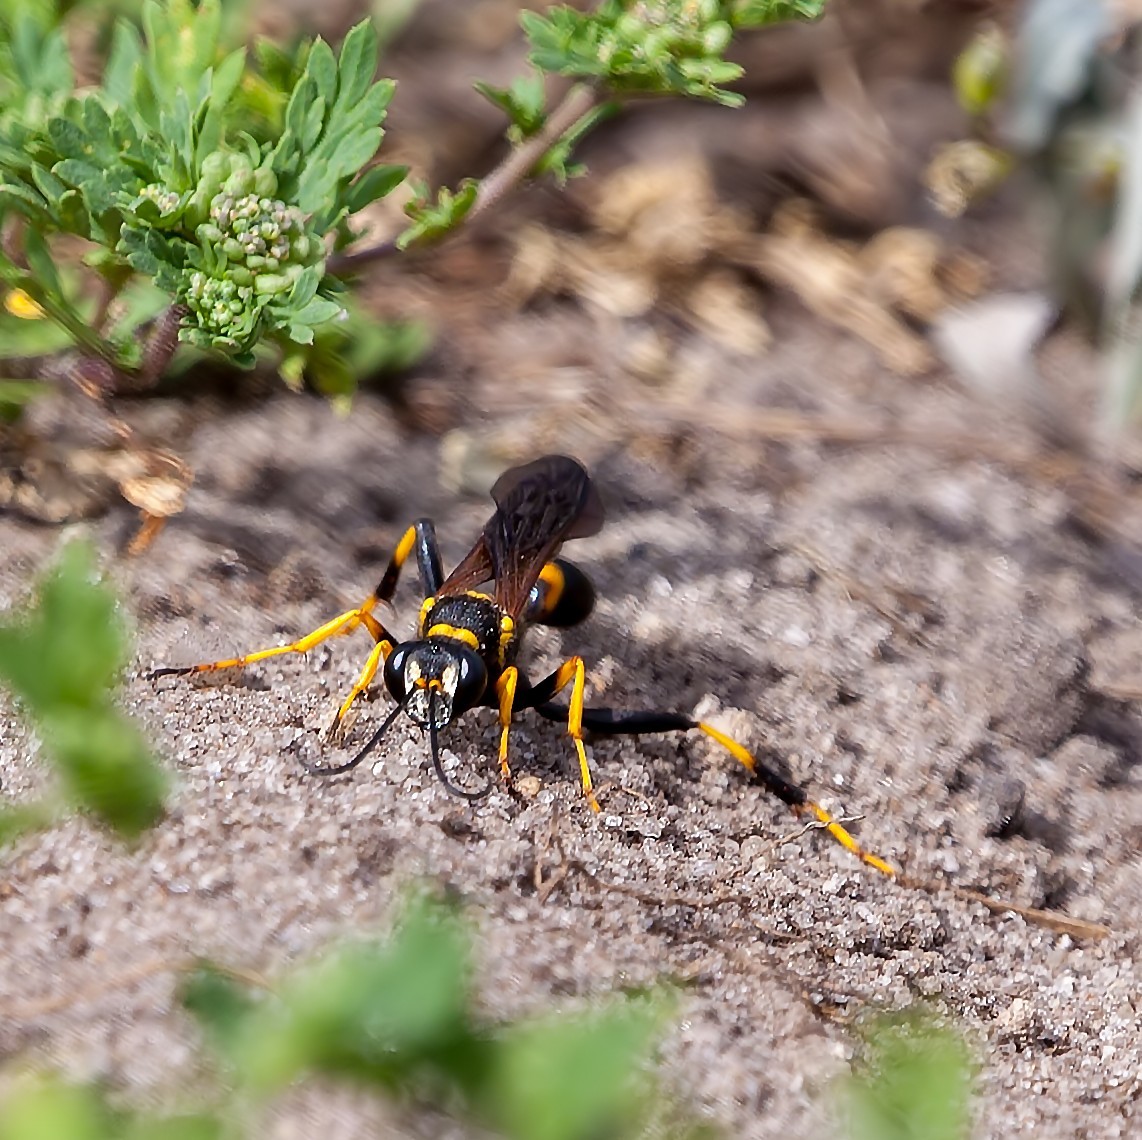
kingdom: Animalia
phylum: Arthropoda
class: Insecta
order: Hymenoptera
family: Sphecidae
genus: Sceliphron
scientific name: Sceliphron caementarium
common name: Mud dauber
